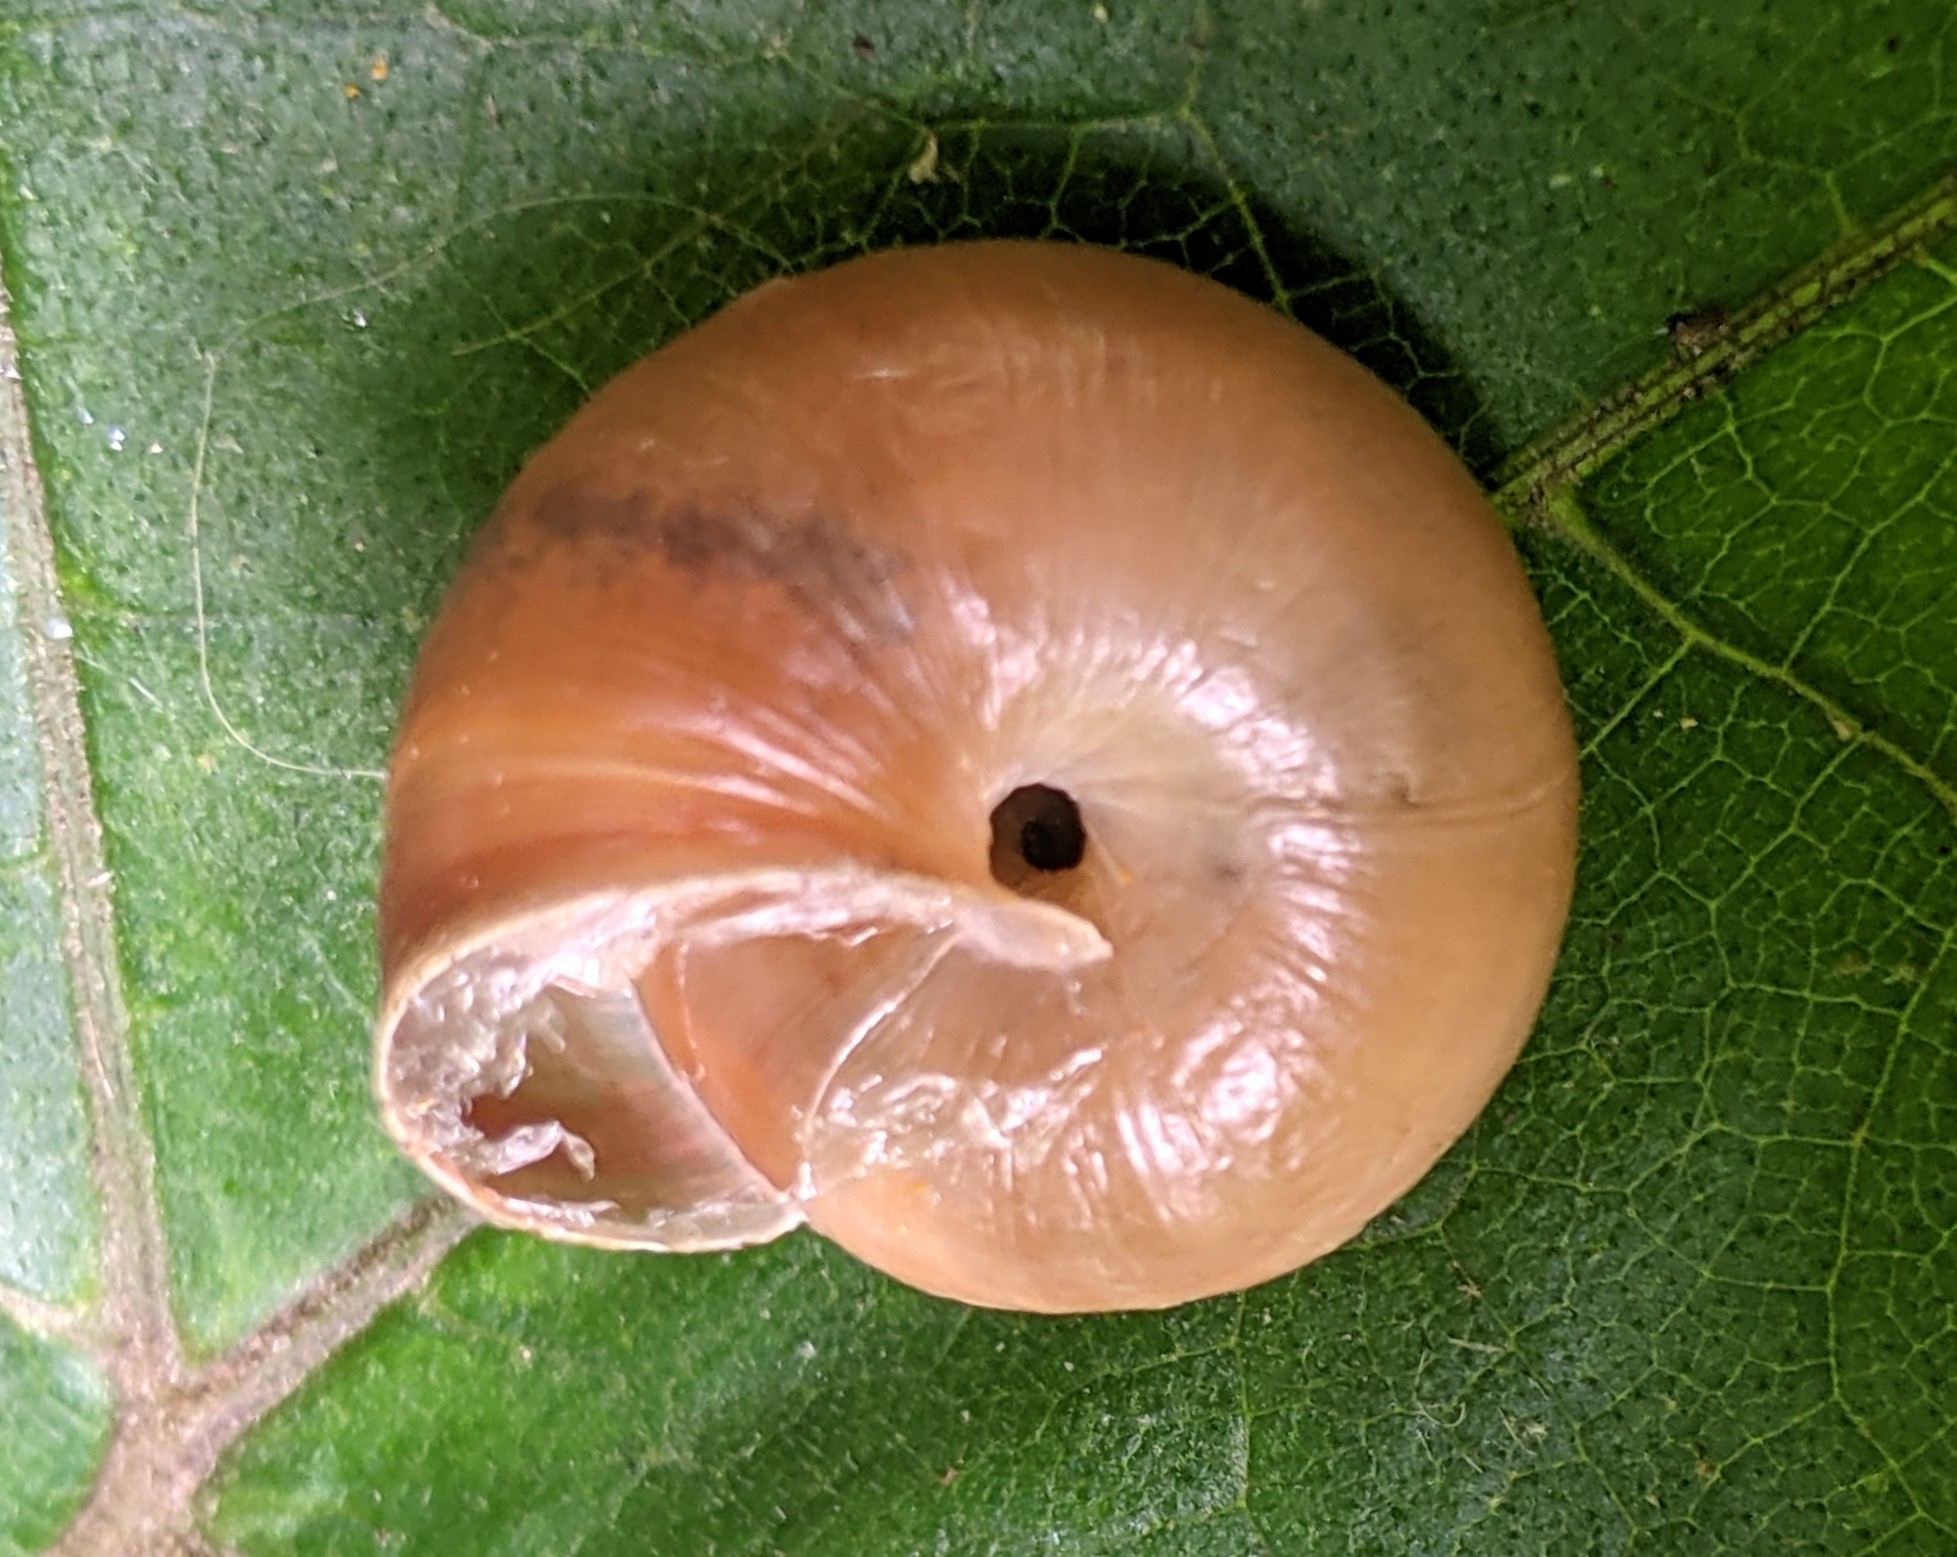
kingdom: Animalia
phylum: Mollusca
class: Gastropoda
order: Stylommatophora
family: Hygromiidae
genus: Monacha
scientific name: Monacha cantiana
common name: Kentish snail
